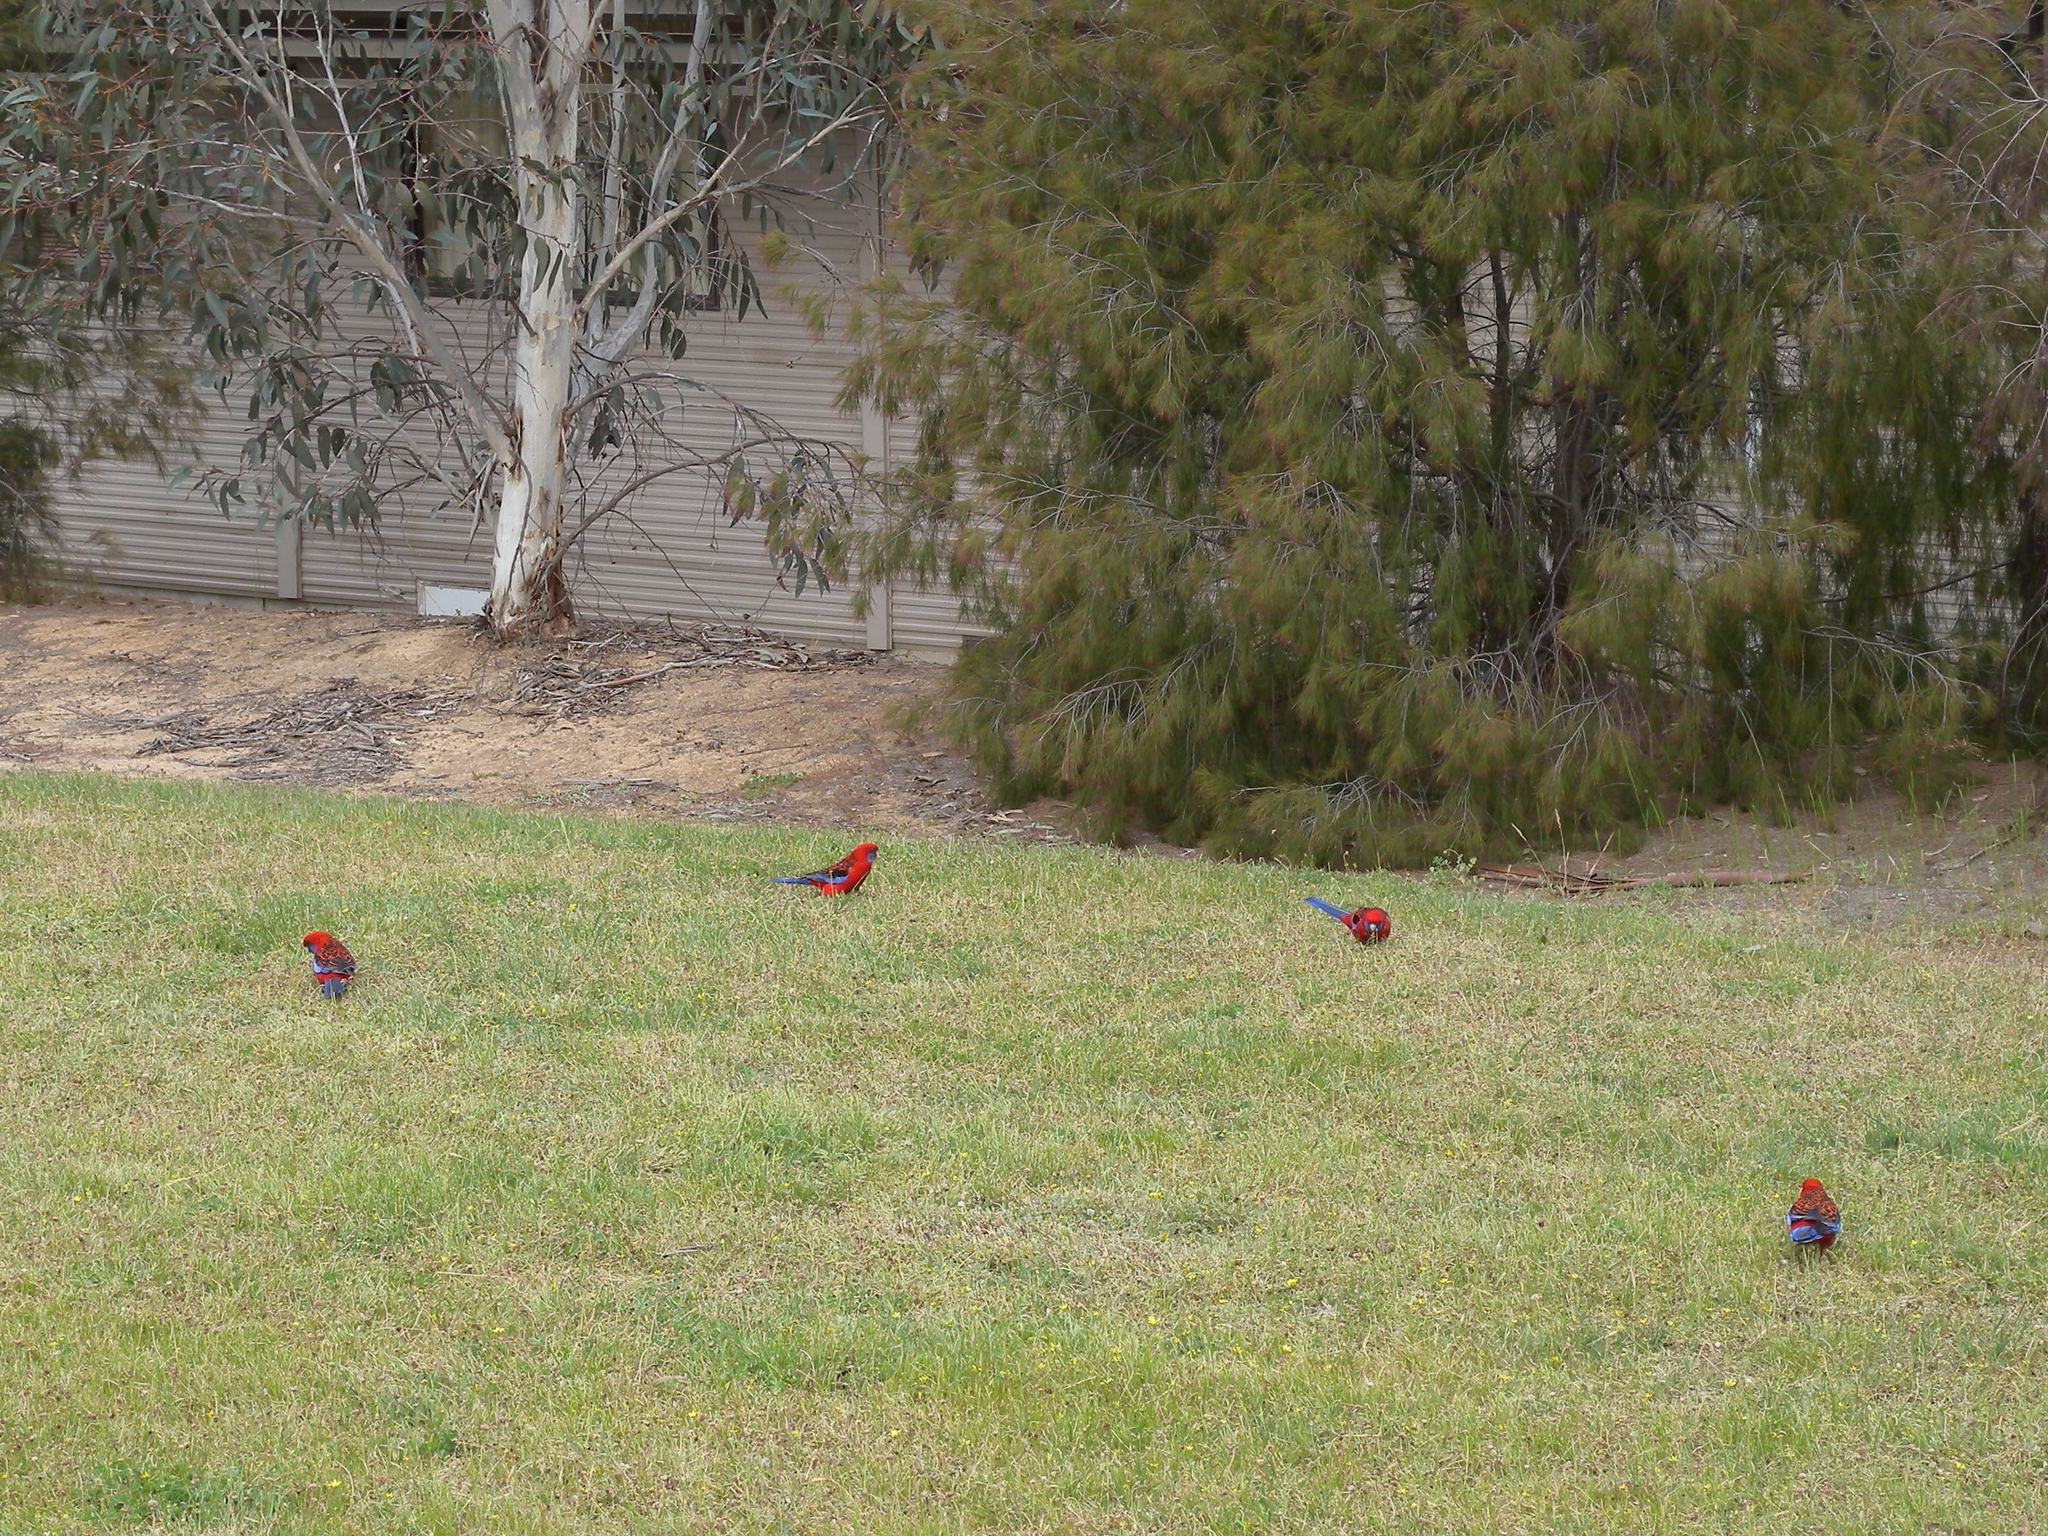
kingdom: Animalia
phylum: Chordata
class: Aves
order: Psittaciformes
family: Psittacidae
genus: Platycercus
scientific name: Platycercus elegans
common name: Crimson rosella
